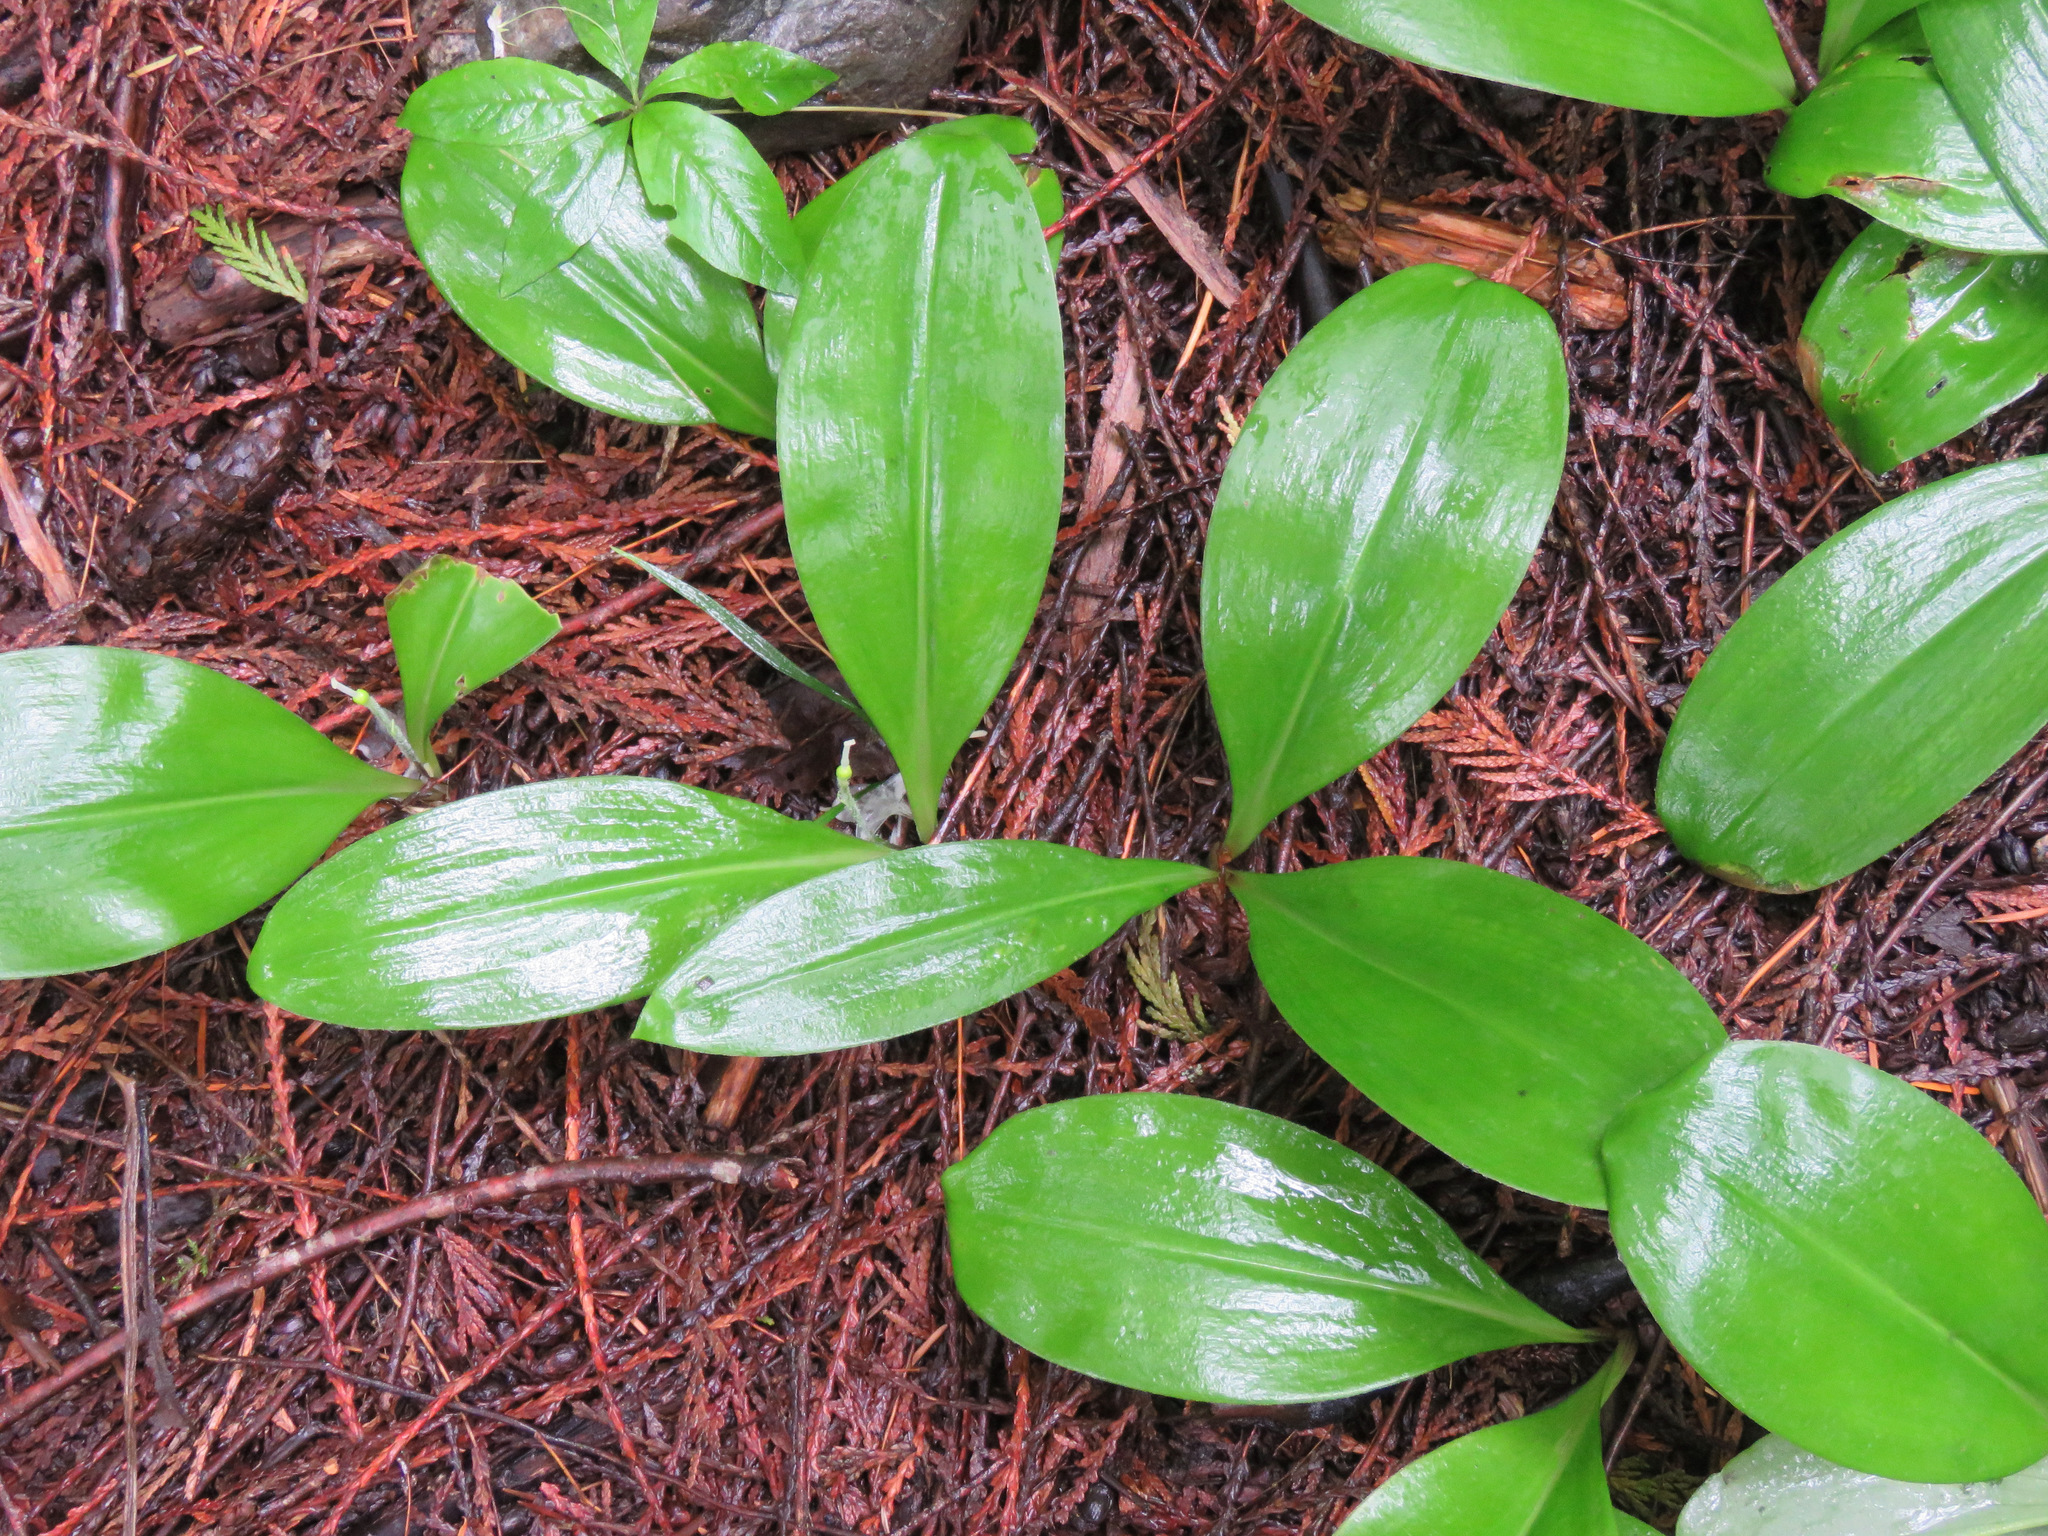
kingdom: Plantae
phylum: Tracheophyta
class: Liliopsida
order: Liliales
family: Liliaceae
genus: Clintonia
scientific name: Clintonia uniflora
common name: Queen's cup
